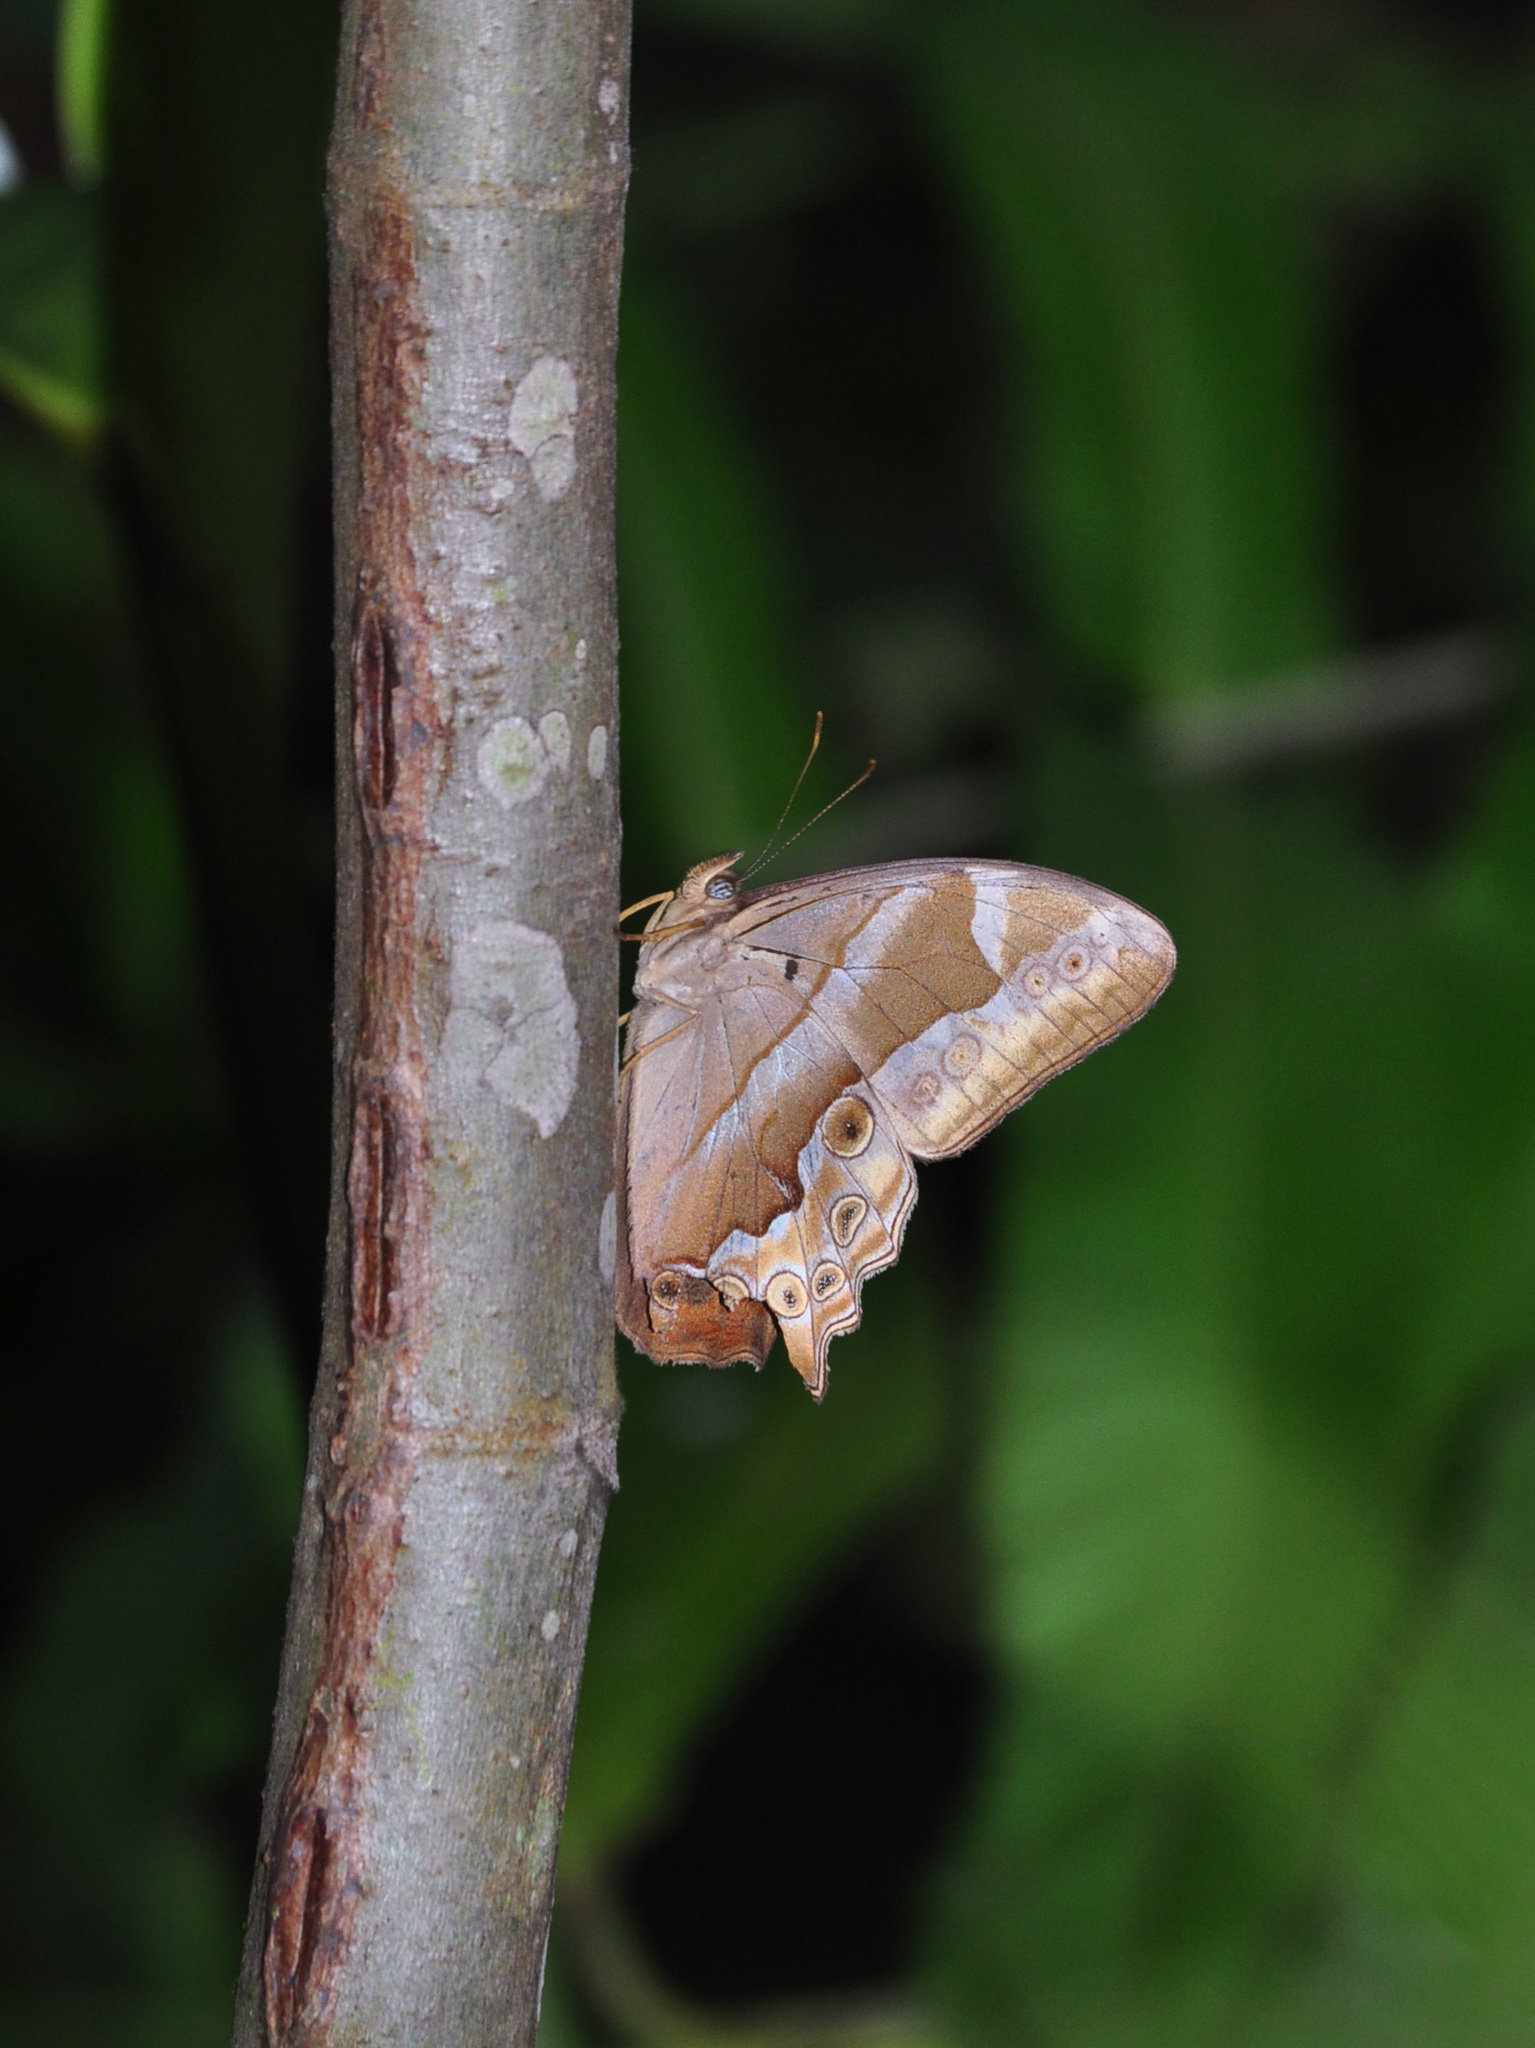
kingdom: Animalia
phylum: Arthropoda
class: Insecta
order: Lepidoptera
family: Nymphalidae
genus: Lethe
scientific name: Lethe mekara
